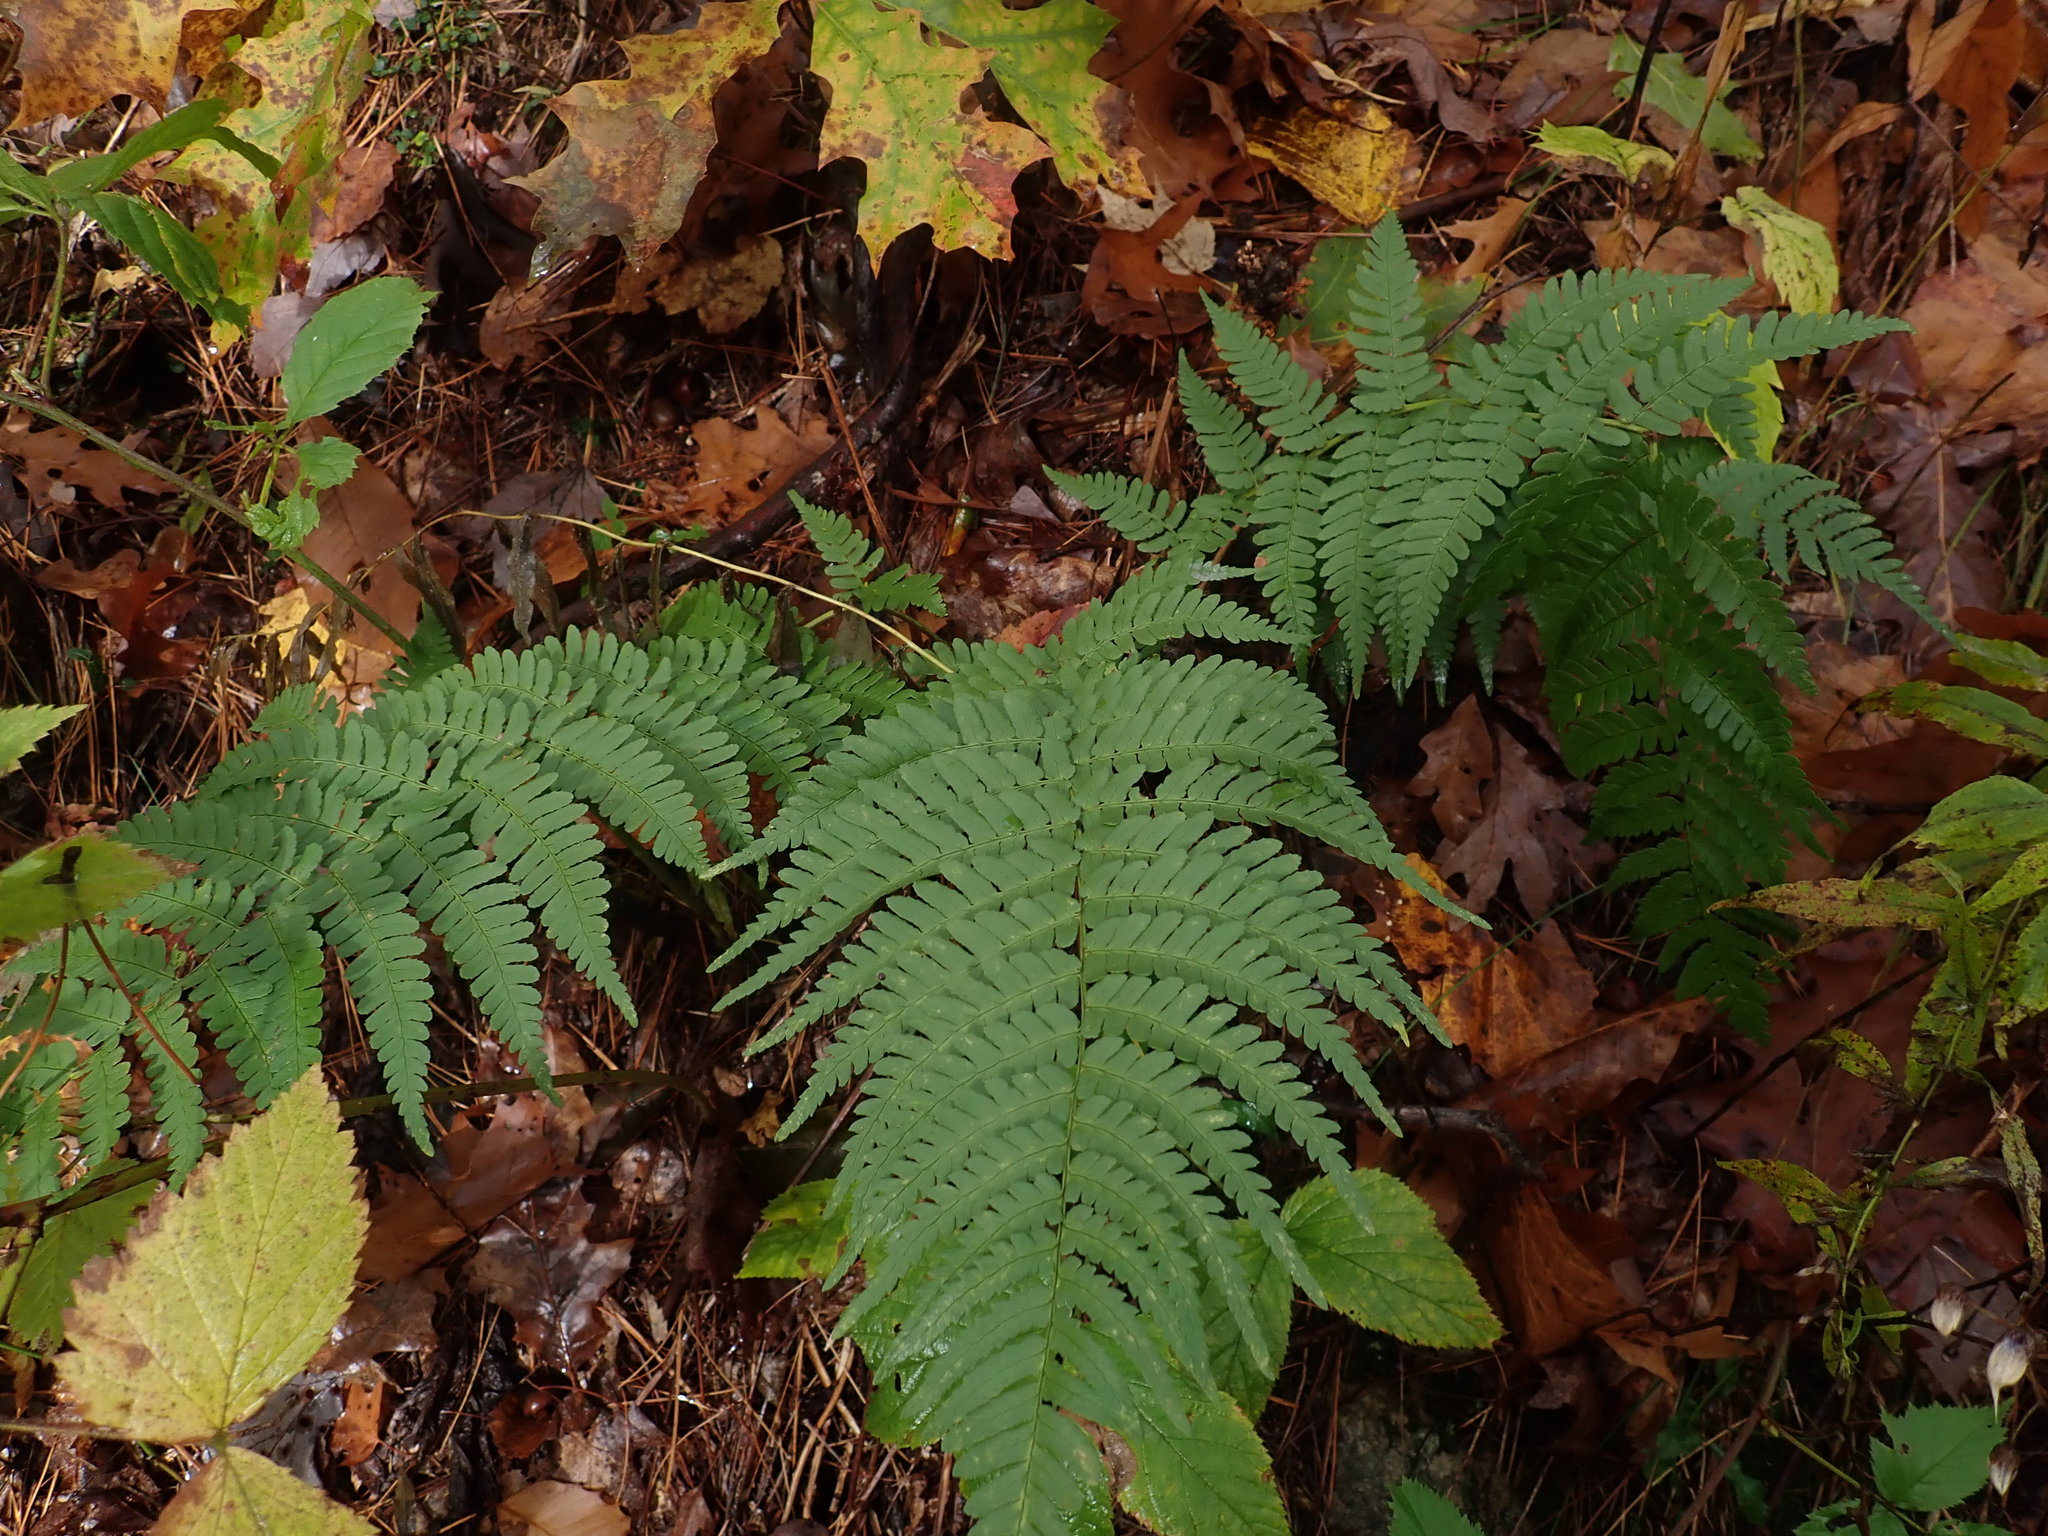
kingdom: Plantae
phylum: Tracheophyta
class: Polypodiopsida
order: Polypodiales
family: Dryopteridaceae
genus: Dryopteris
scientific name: Dryopteris marginalis
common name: Marginal wood fern
